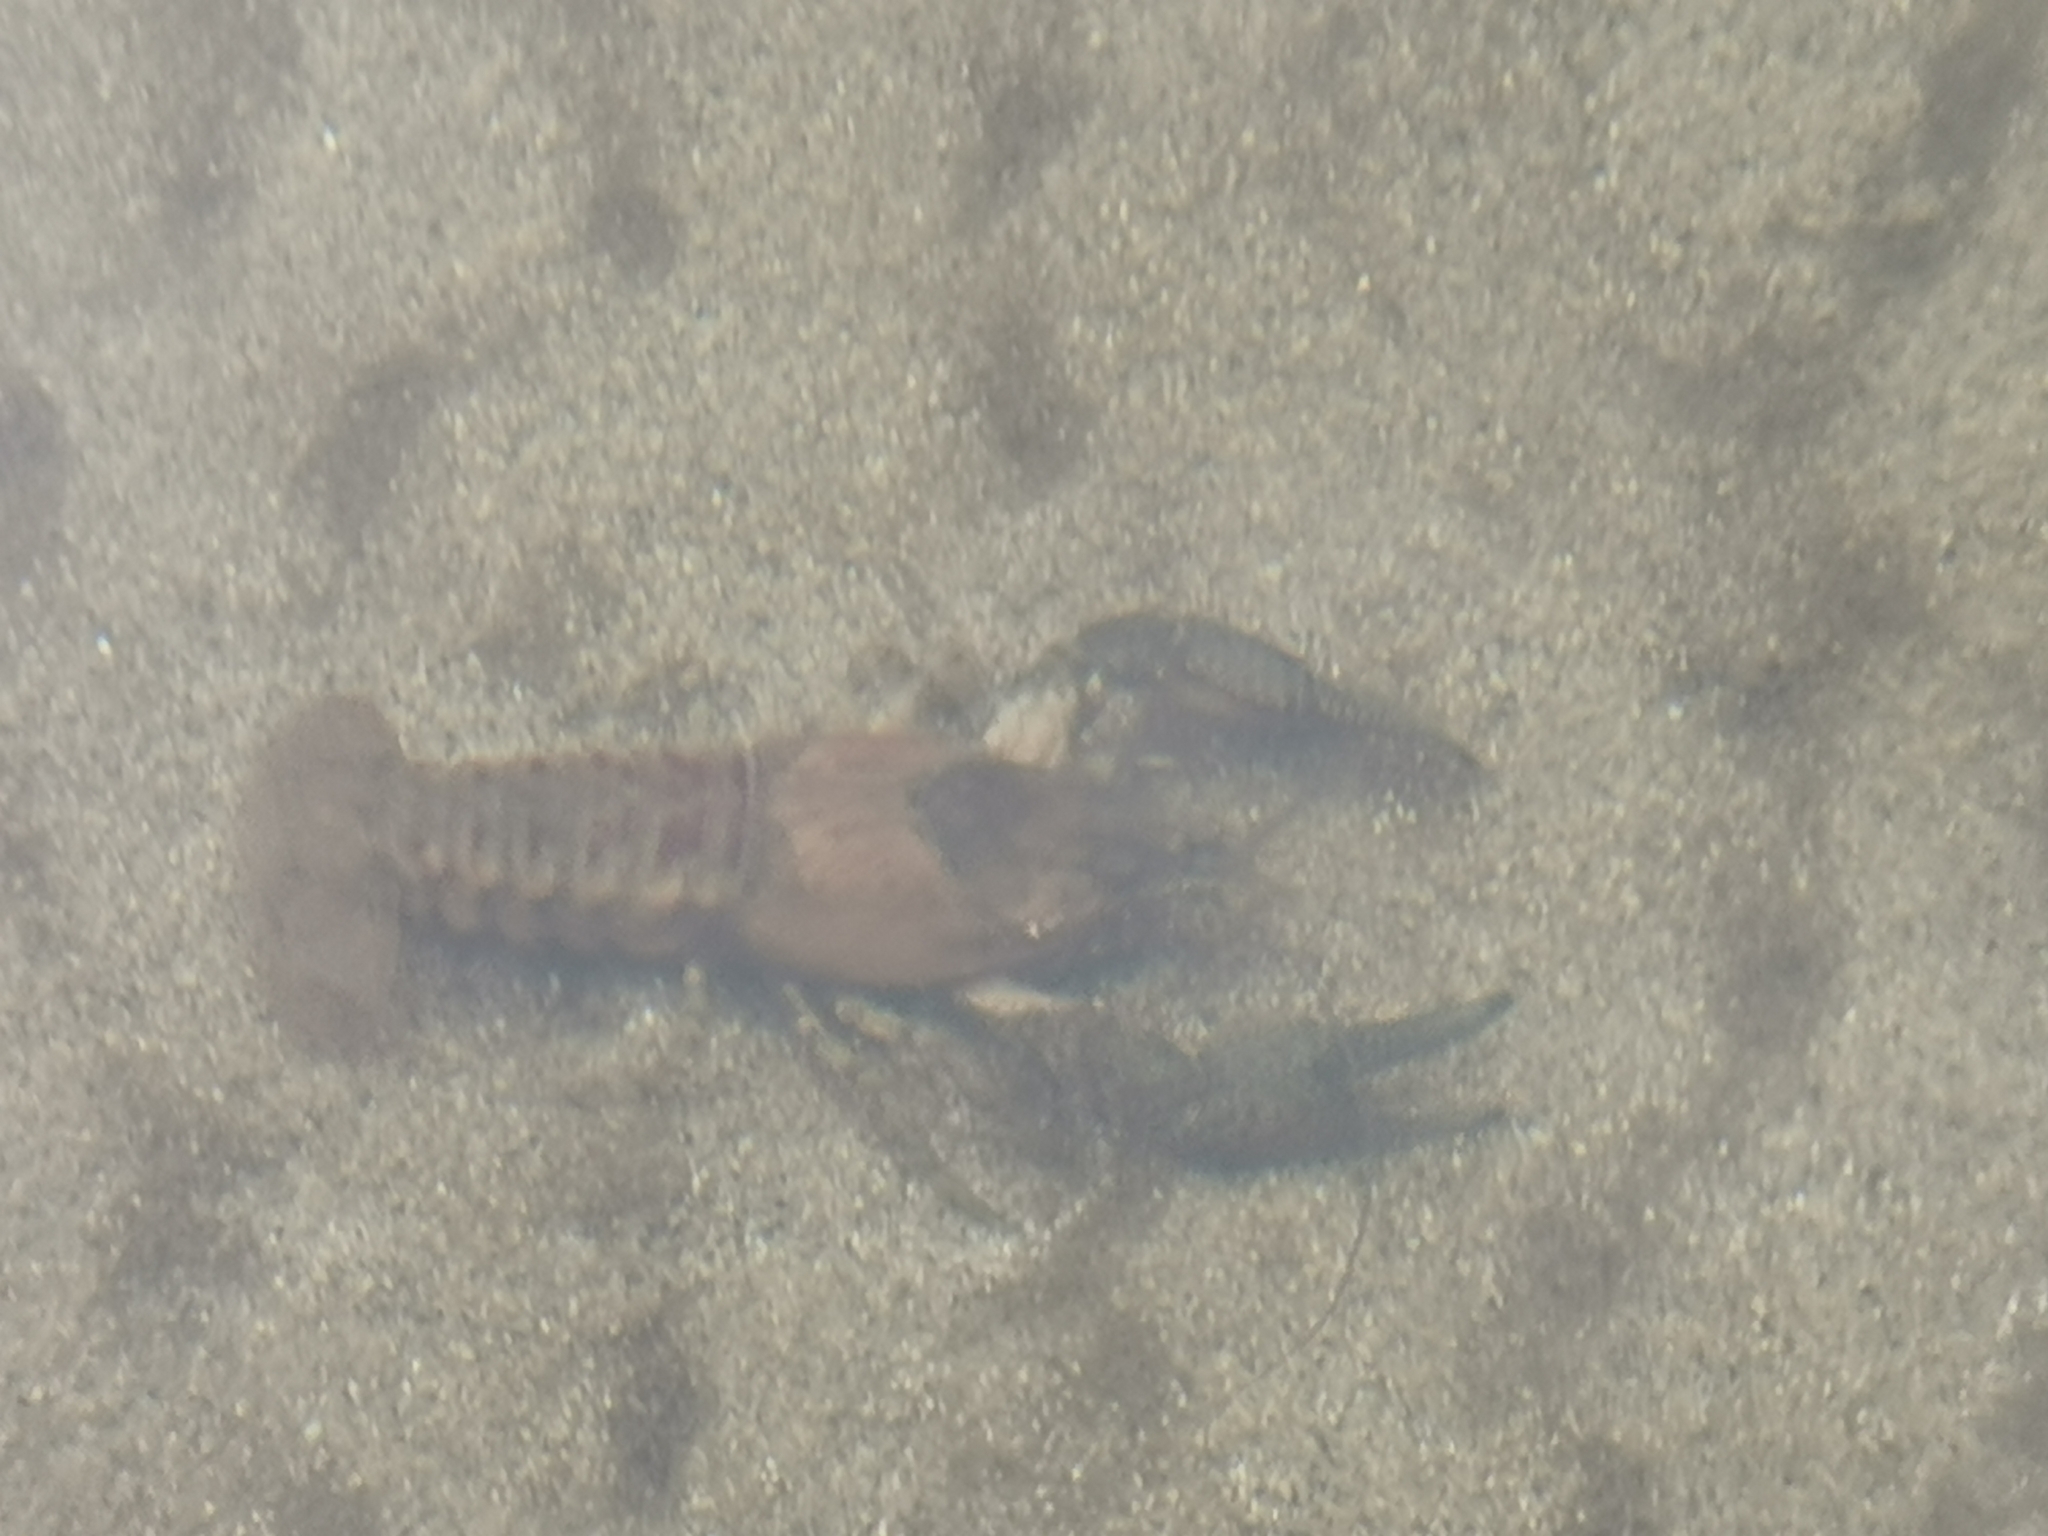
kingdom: Animalia
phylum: Arthropoda
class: Malacostraca
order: Decapoda
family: Cambaridae
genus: Faxonius
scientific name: Faxonius limosus
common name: American crayfish
